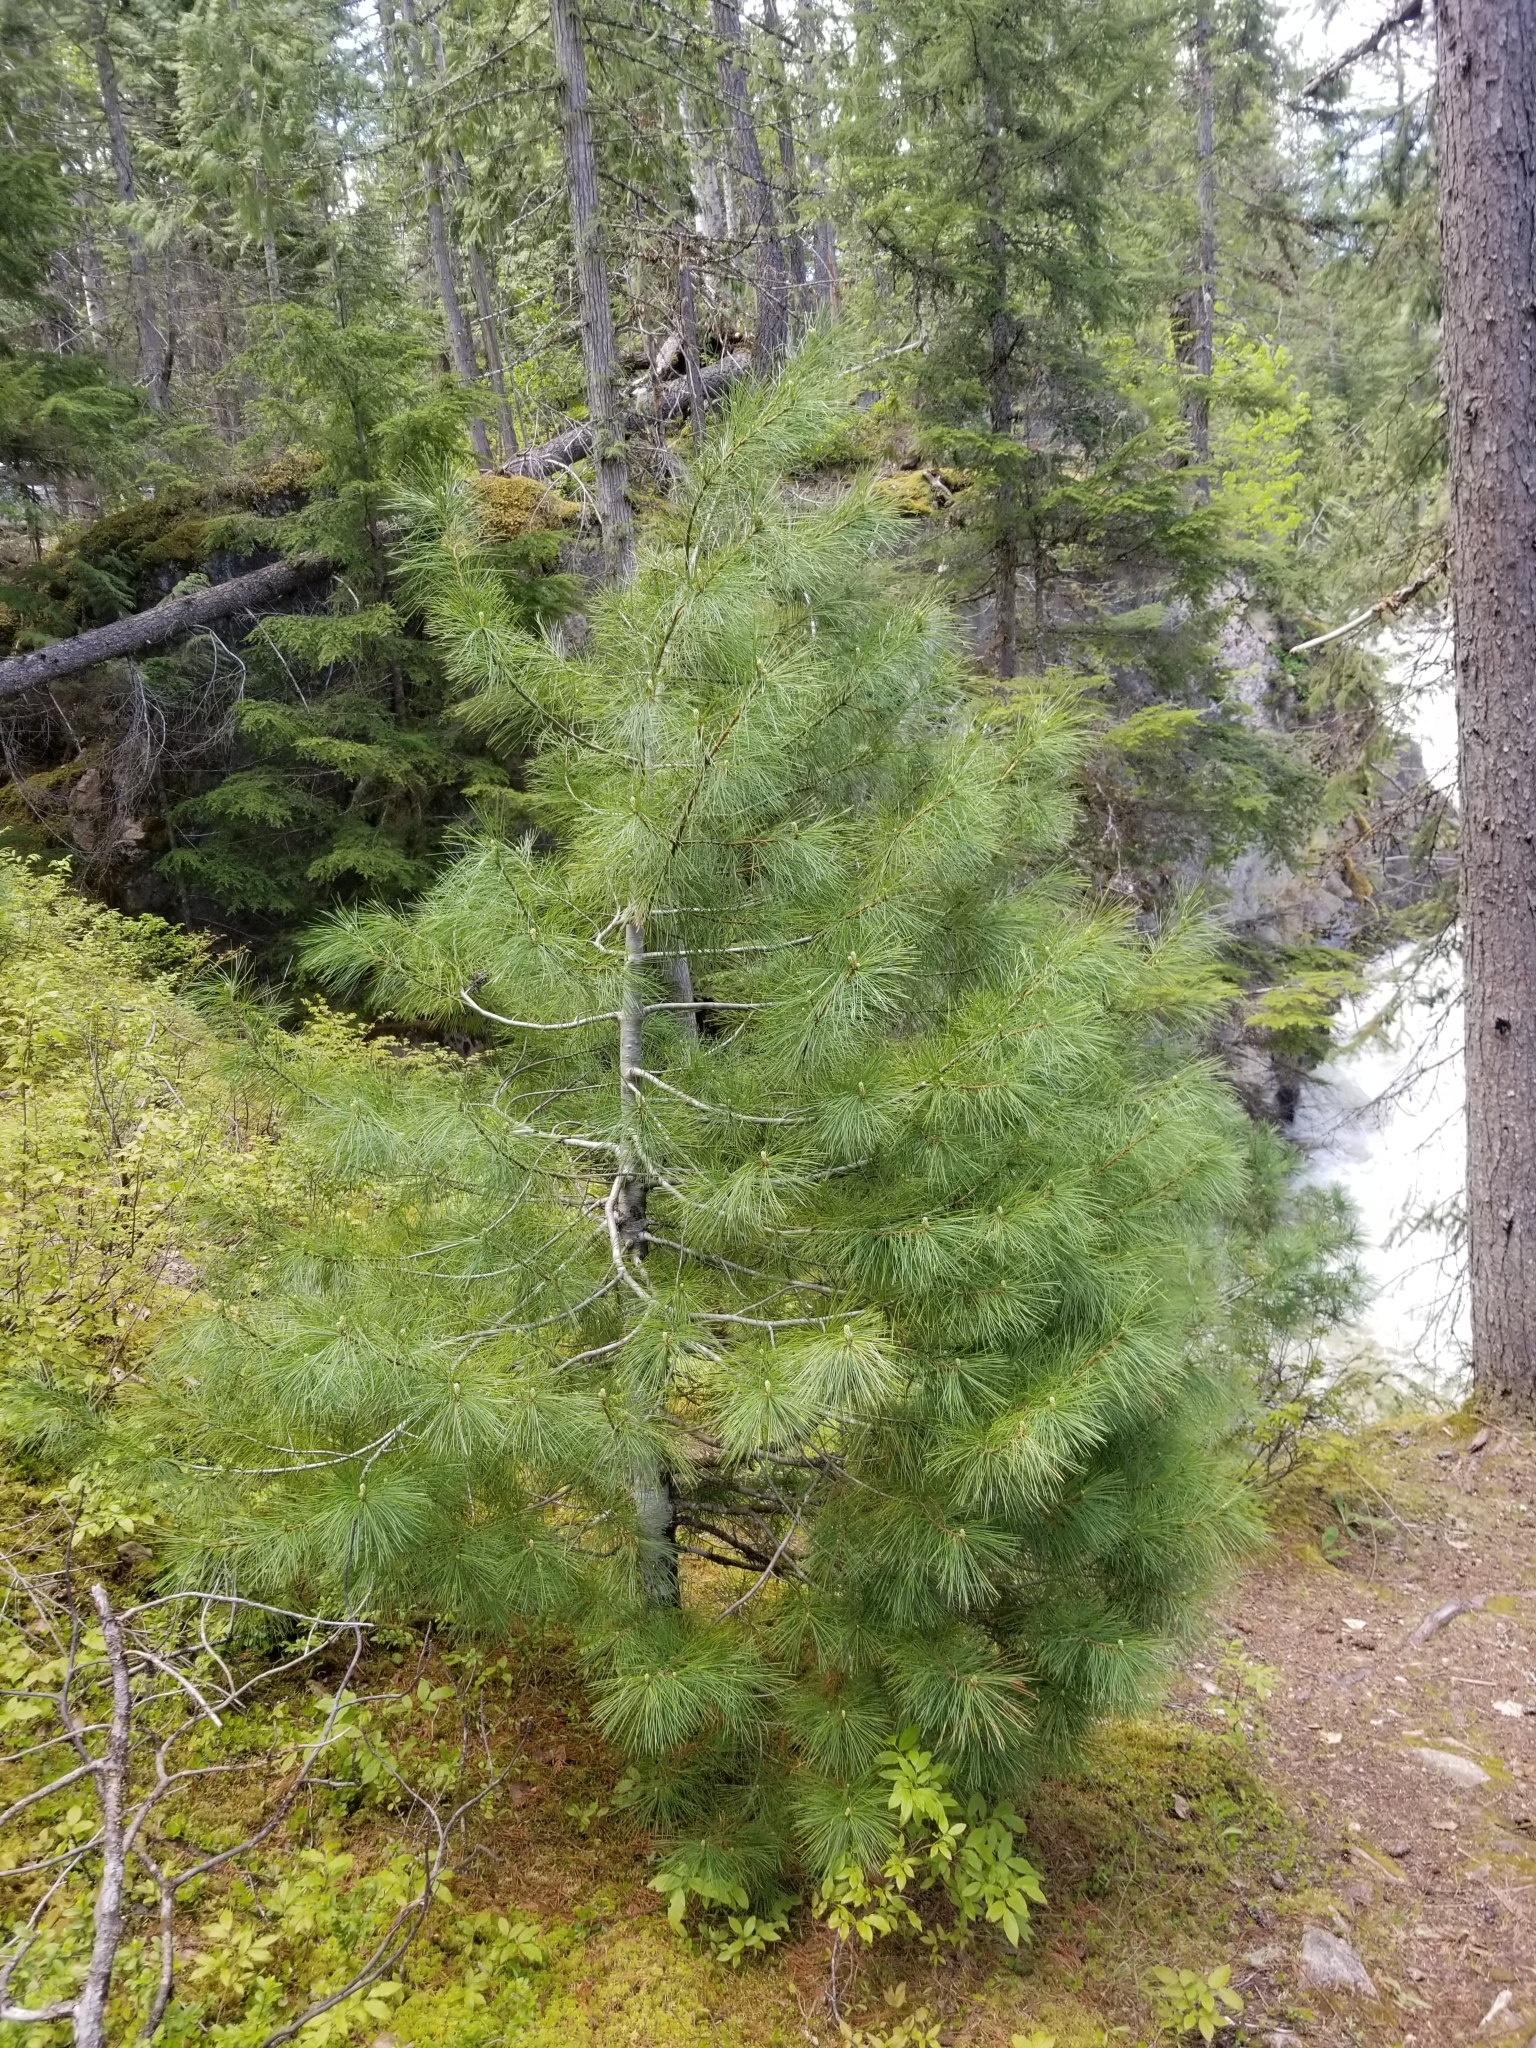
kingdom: Plantae
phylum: Tracheophyta
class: Pinopsida
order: Pinales
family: Pinaceae
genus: Pinus
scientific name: Pinus monticola
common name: Western white pine
